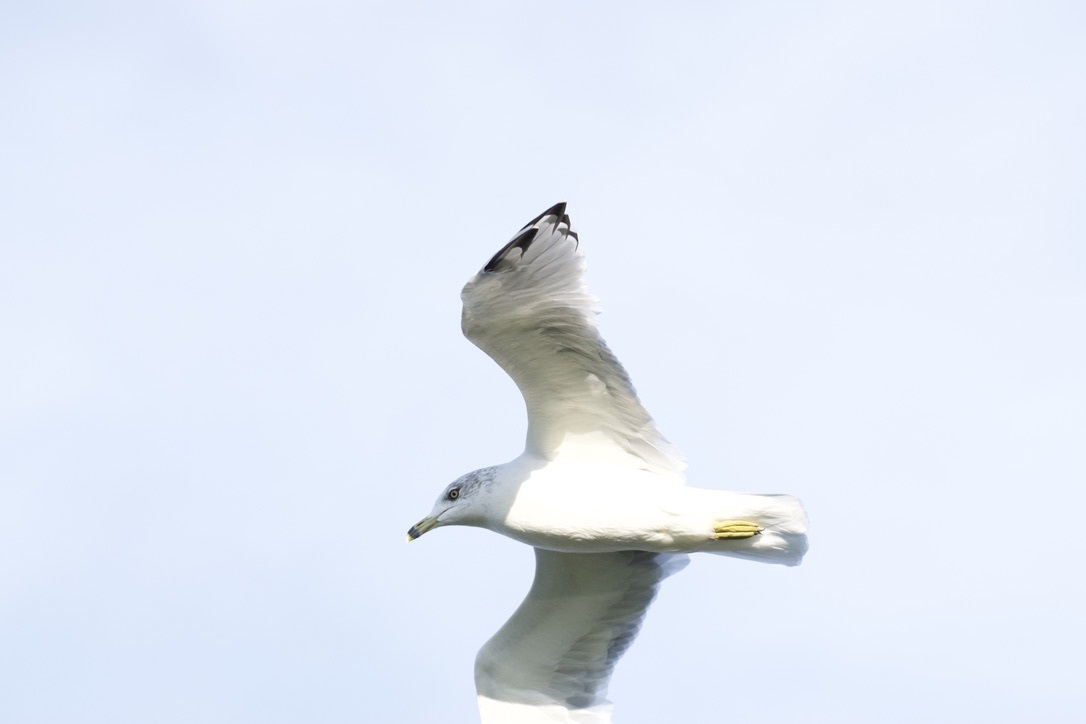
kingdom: Animalia
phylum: Chordata
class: Aves
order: Charadriiformes
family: Laridae
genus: Larus
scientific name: Larus delawarensis
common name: Ring-billed gull
